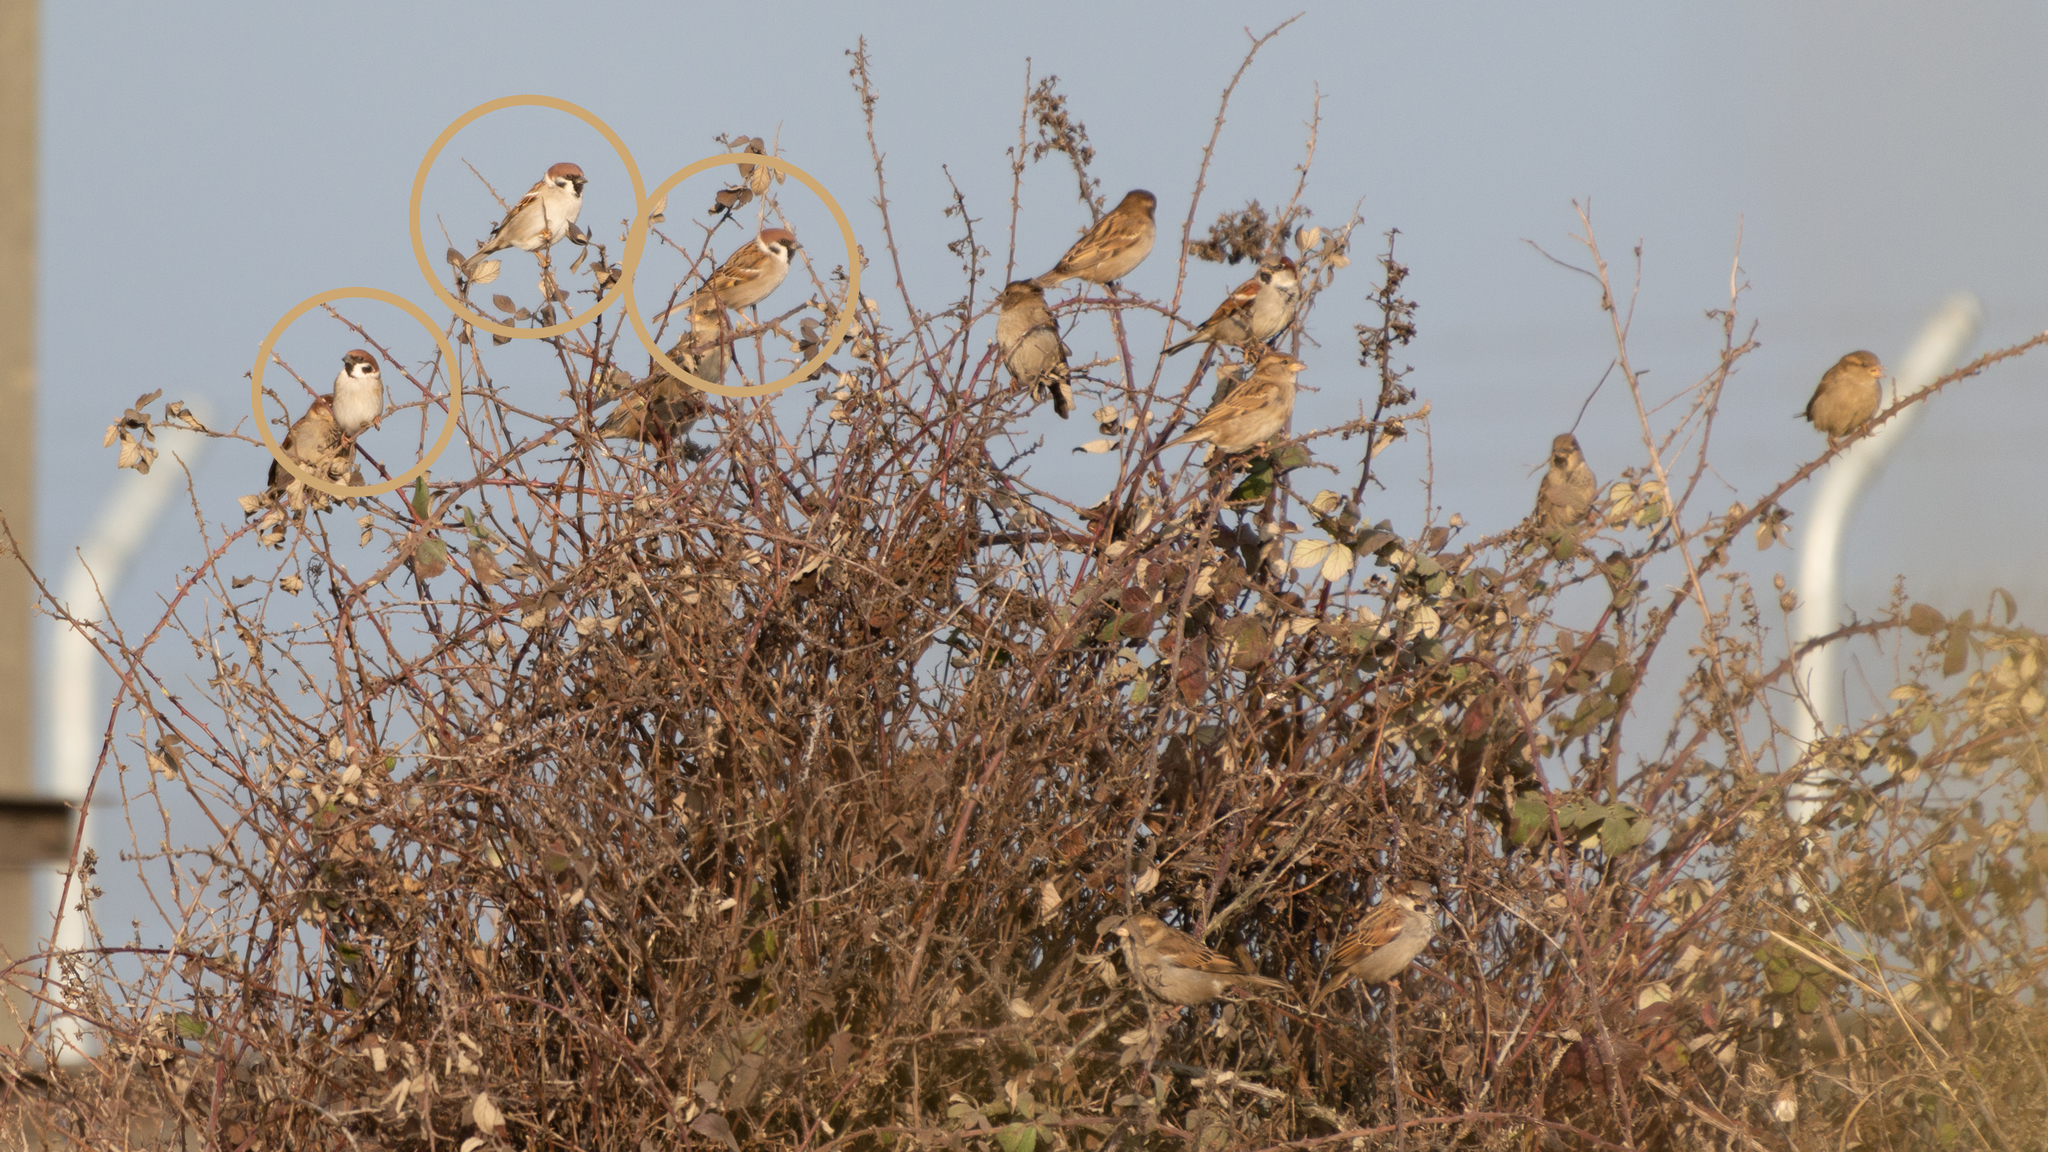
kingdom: Animalia
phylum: Chordata
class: Aves
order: Passeriformes
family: Passeridae
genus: Passer
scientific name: Passer montanus
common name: Eurasian tree sparrow
